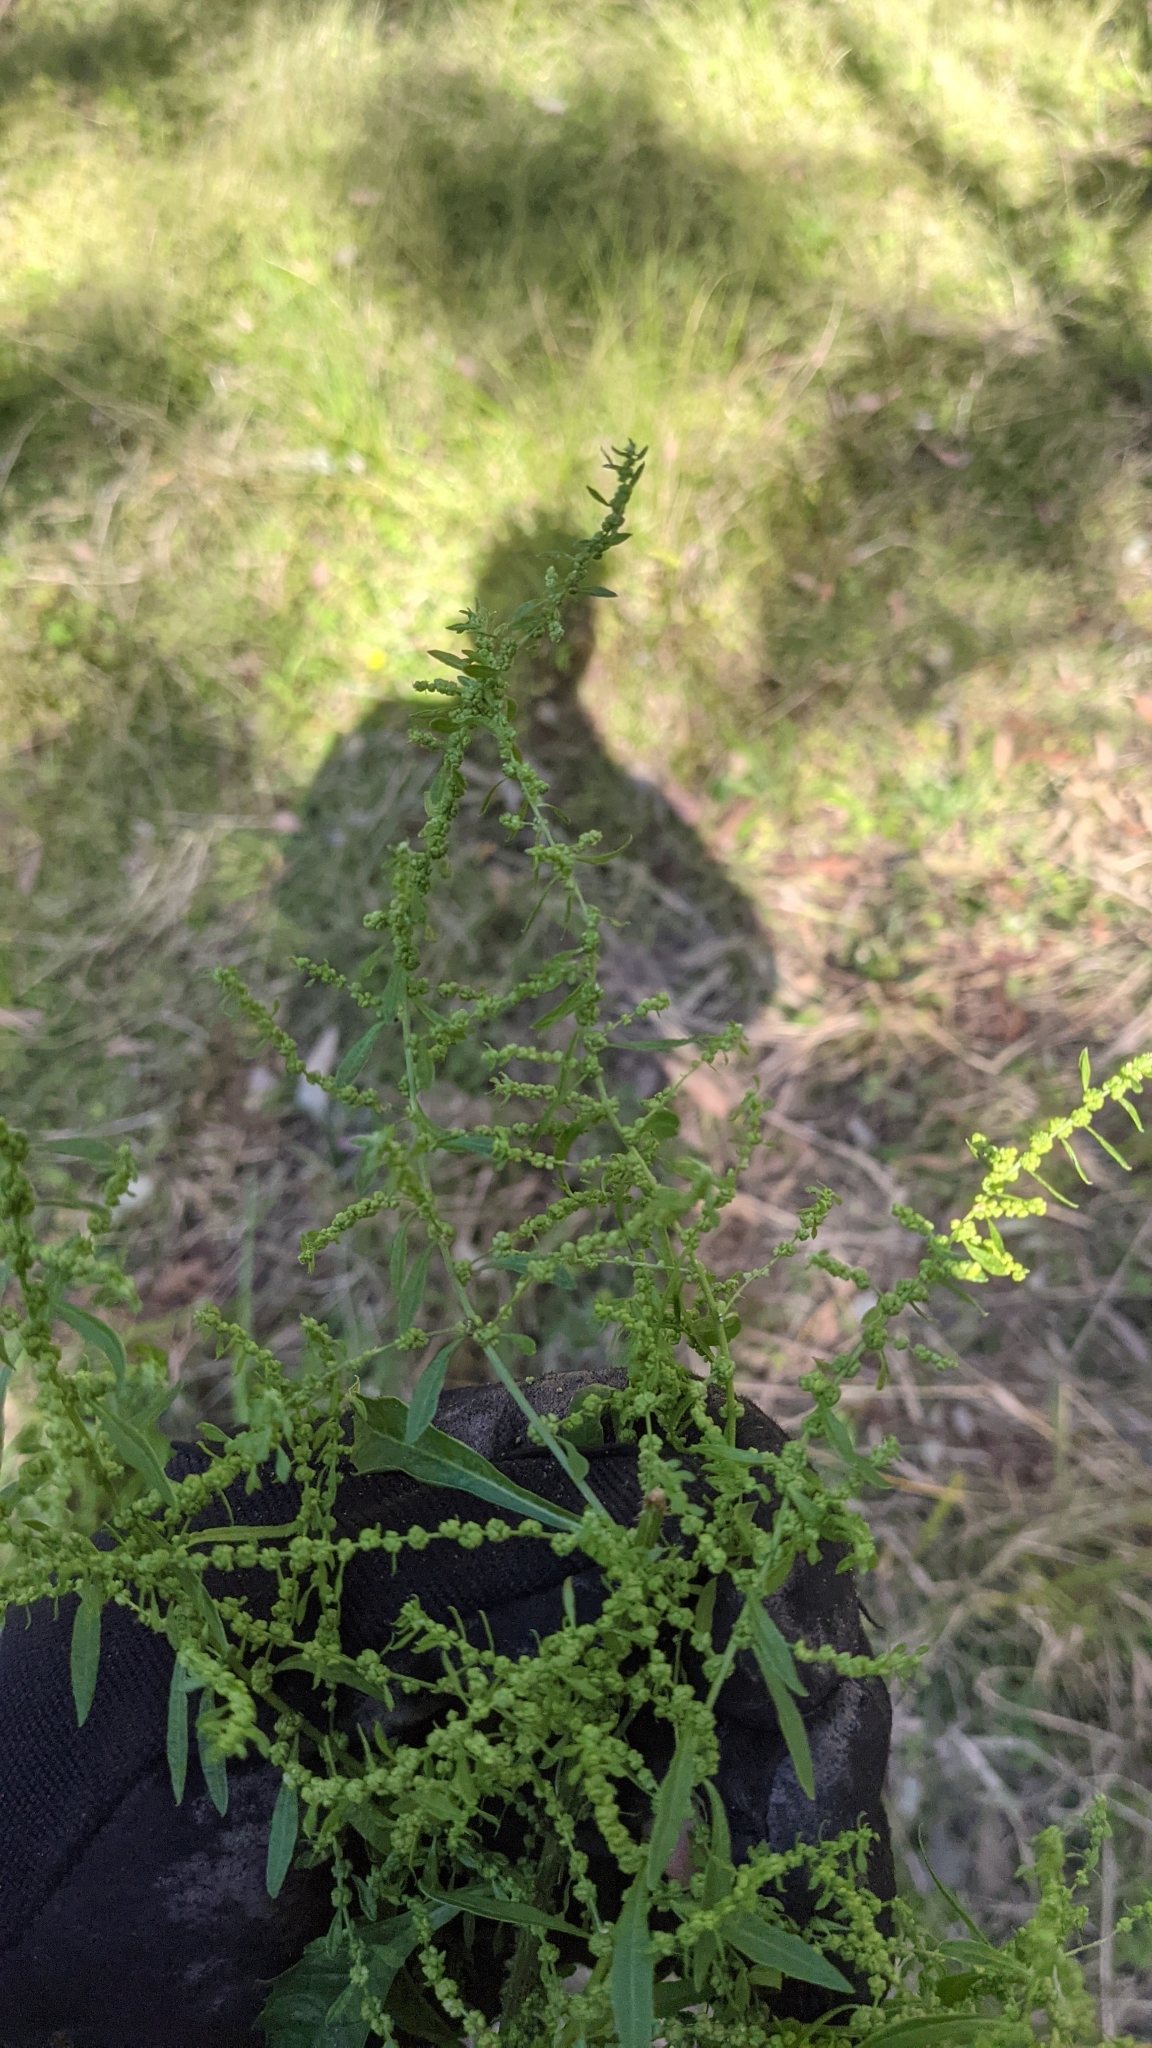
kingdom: Plantae
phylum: Tracheophyta
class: Magnoliopsida
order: Caryophyllales
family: Amaranthaceae
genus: Dysphania
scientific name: Dysphania ambrosioides
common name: Wormseed
